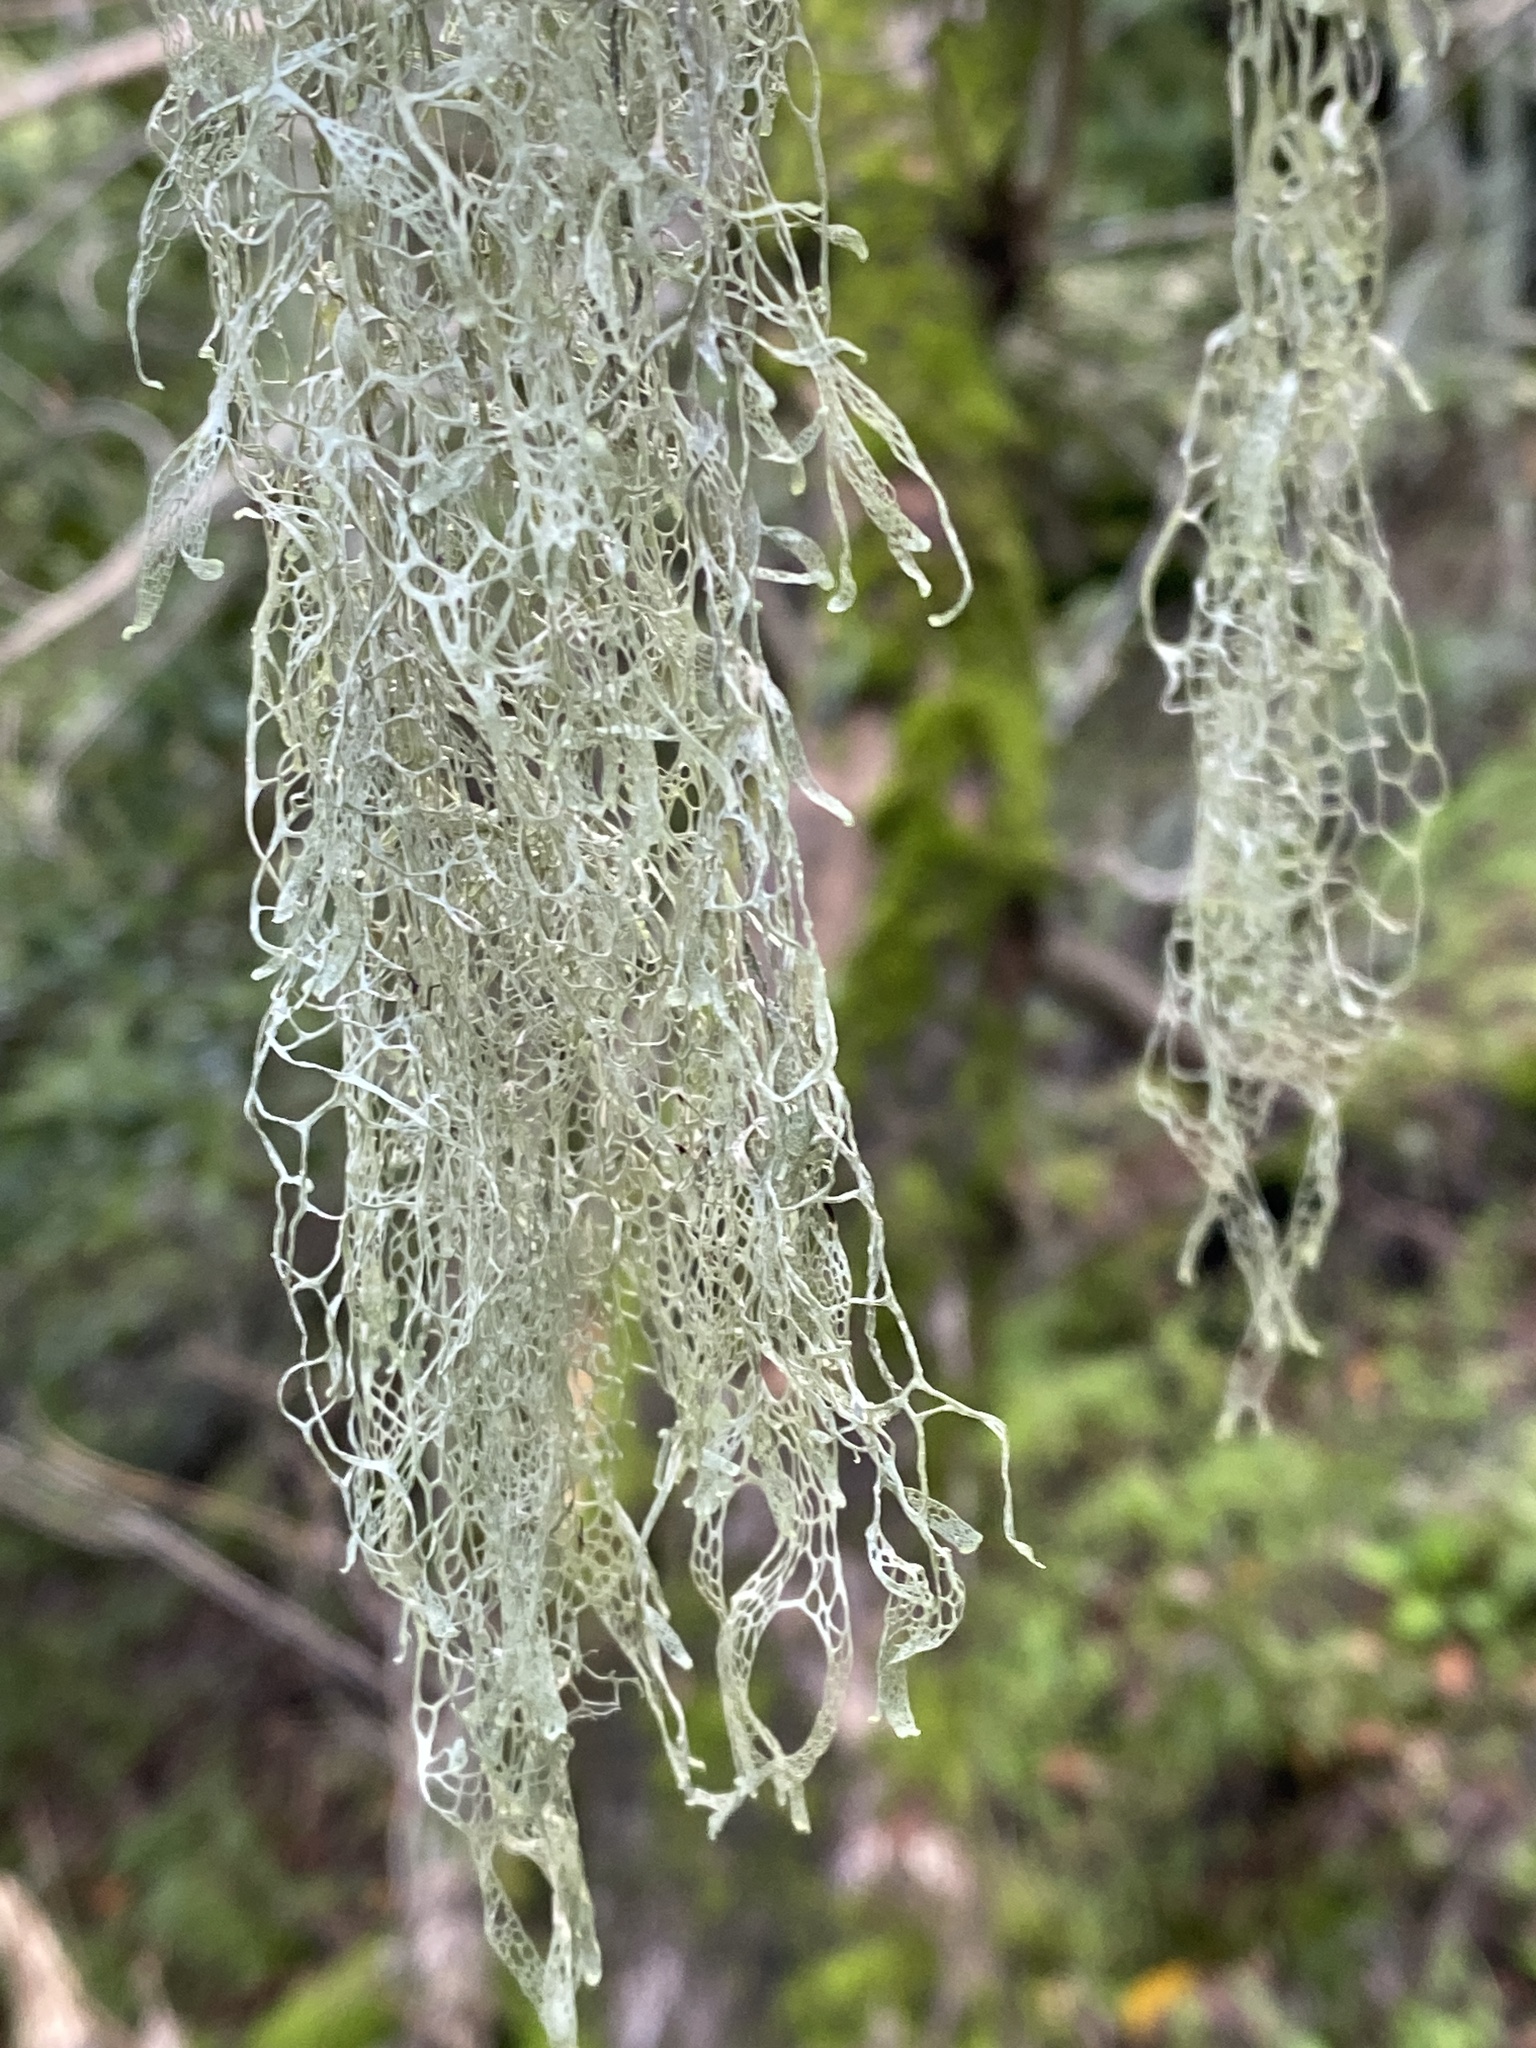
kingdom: Fungi
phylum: Ascomycota
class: Lecanoromycetes
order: Lecanorales
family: Ramalinaceae
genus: Ramalina
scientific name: Ramalina menziesii
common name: Lace lichen
